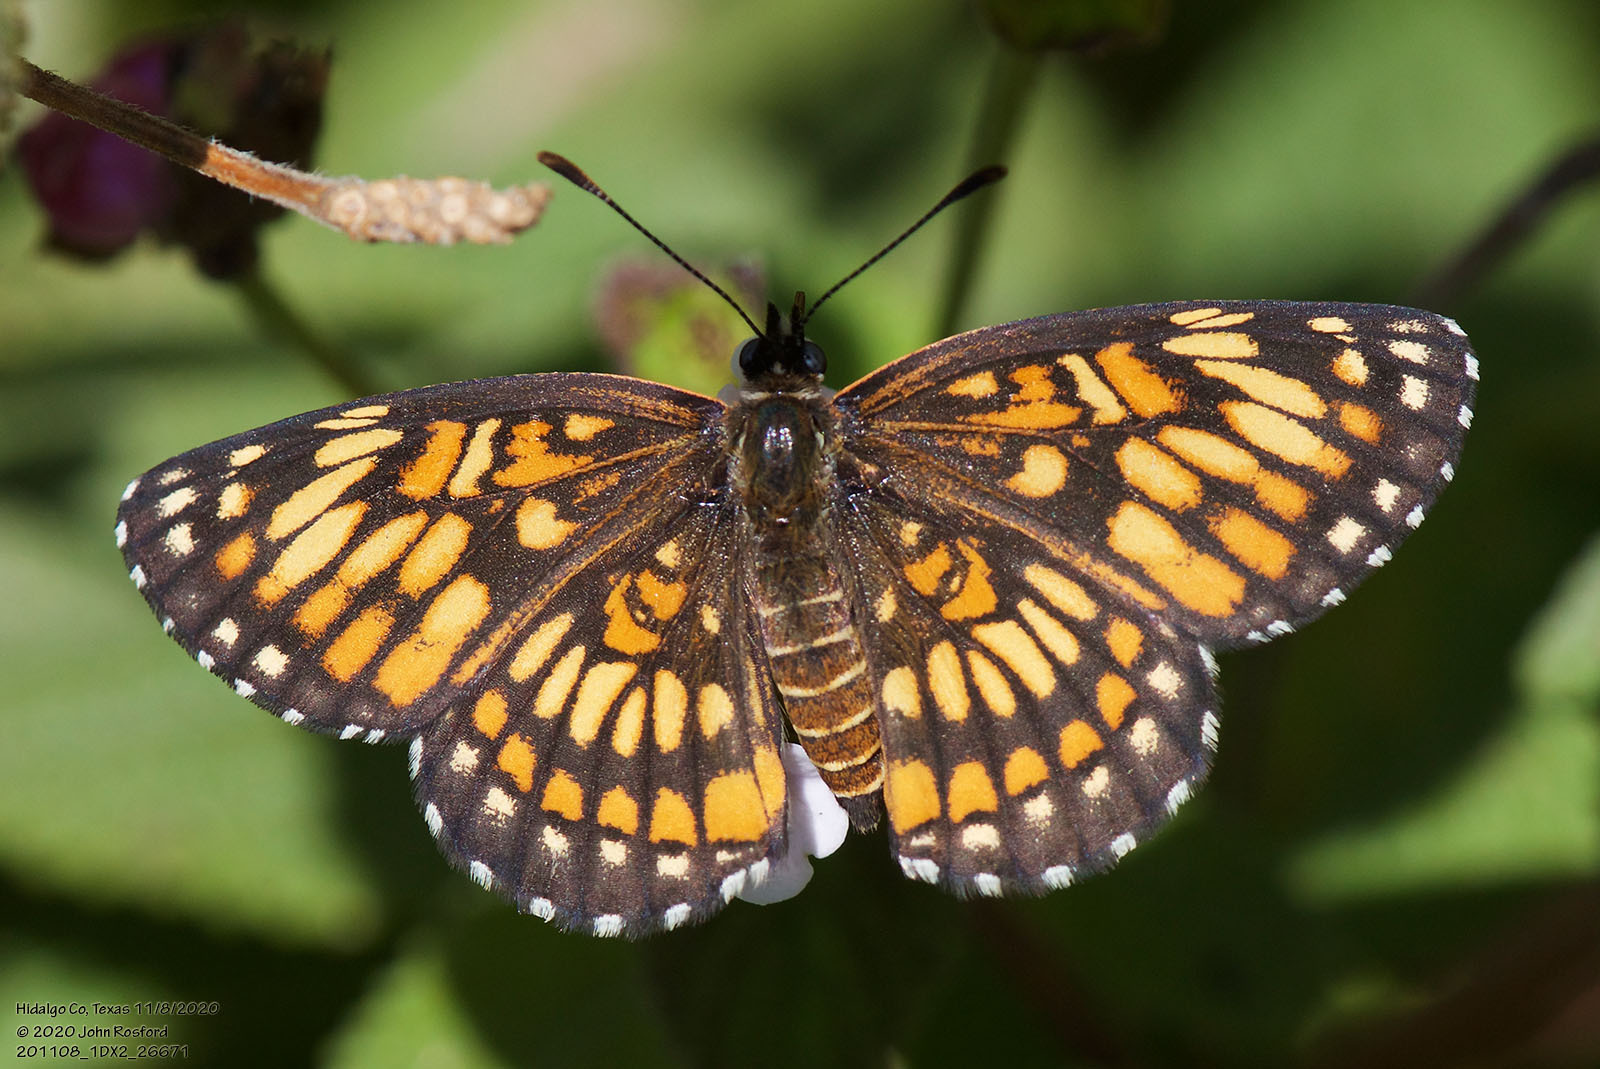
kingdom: Animalia
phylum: Arthropoda
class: Insecta
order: Lepidoptera
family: Nymphalidae
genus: Thessalia
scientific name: Thessalia theona
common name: Nymphalid moth
